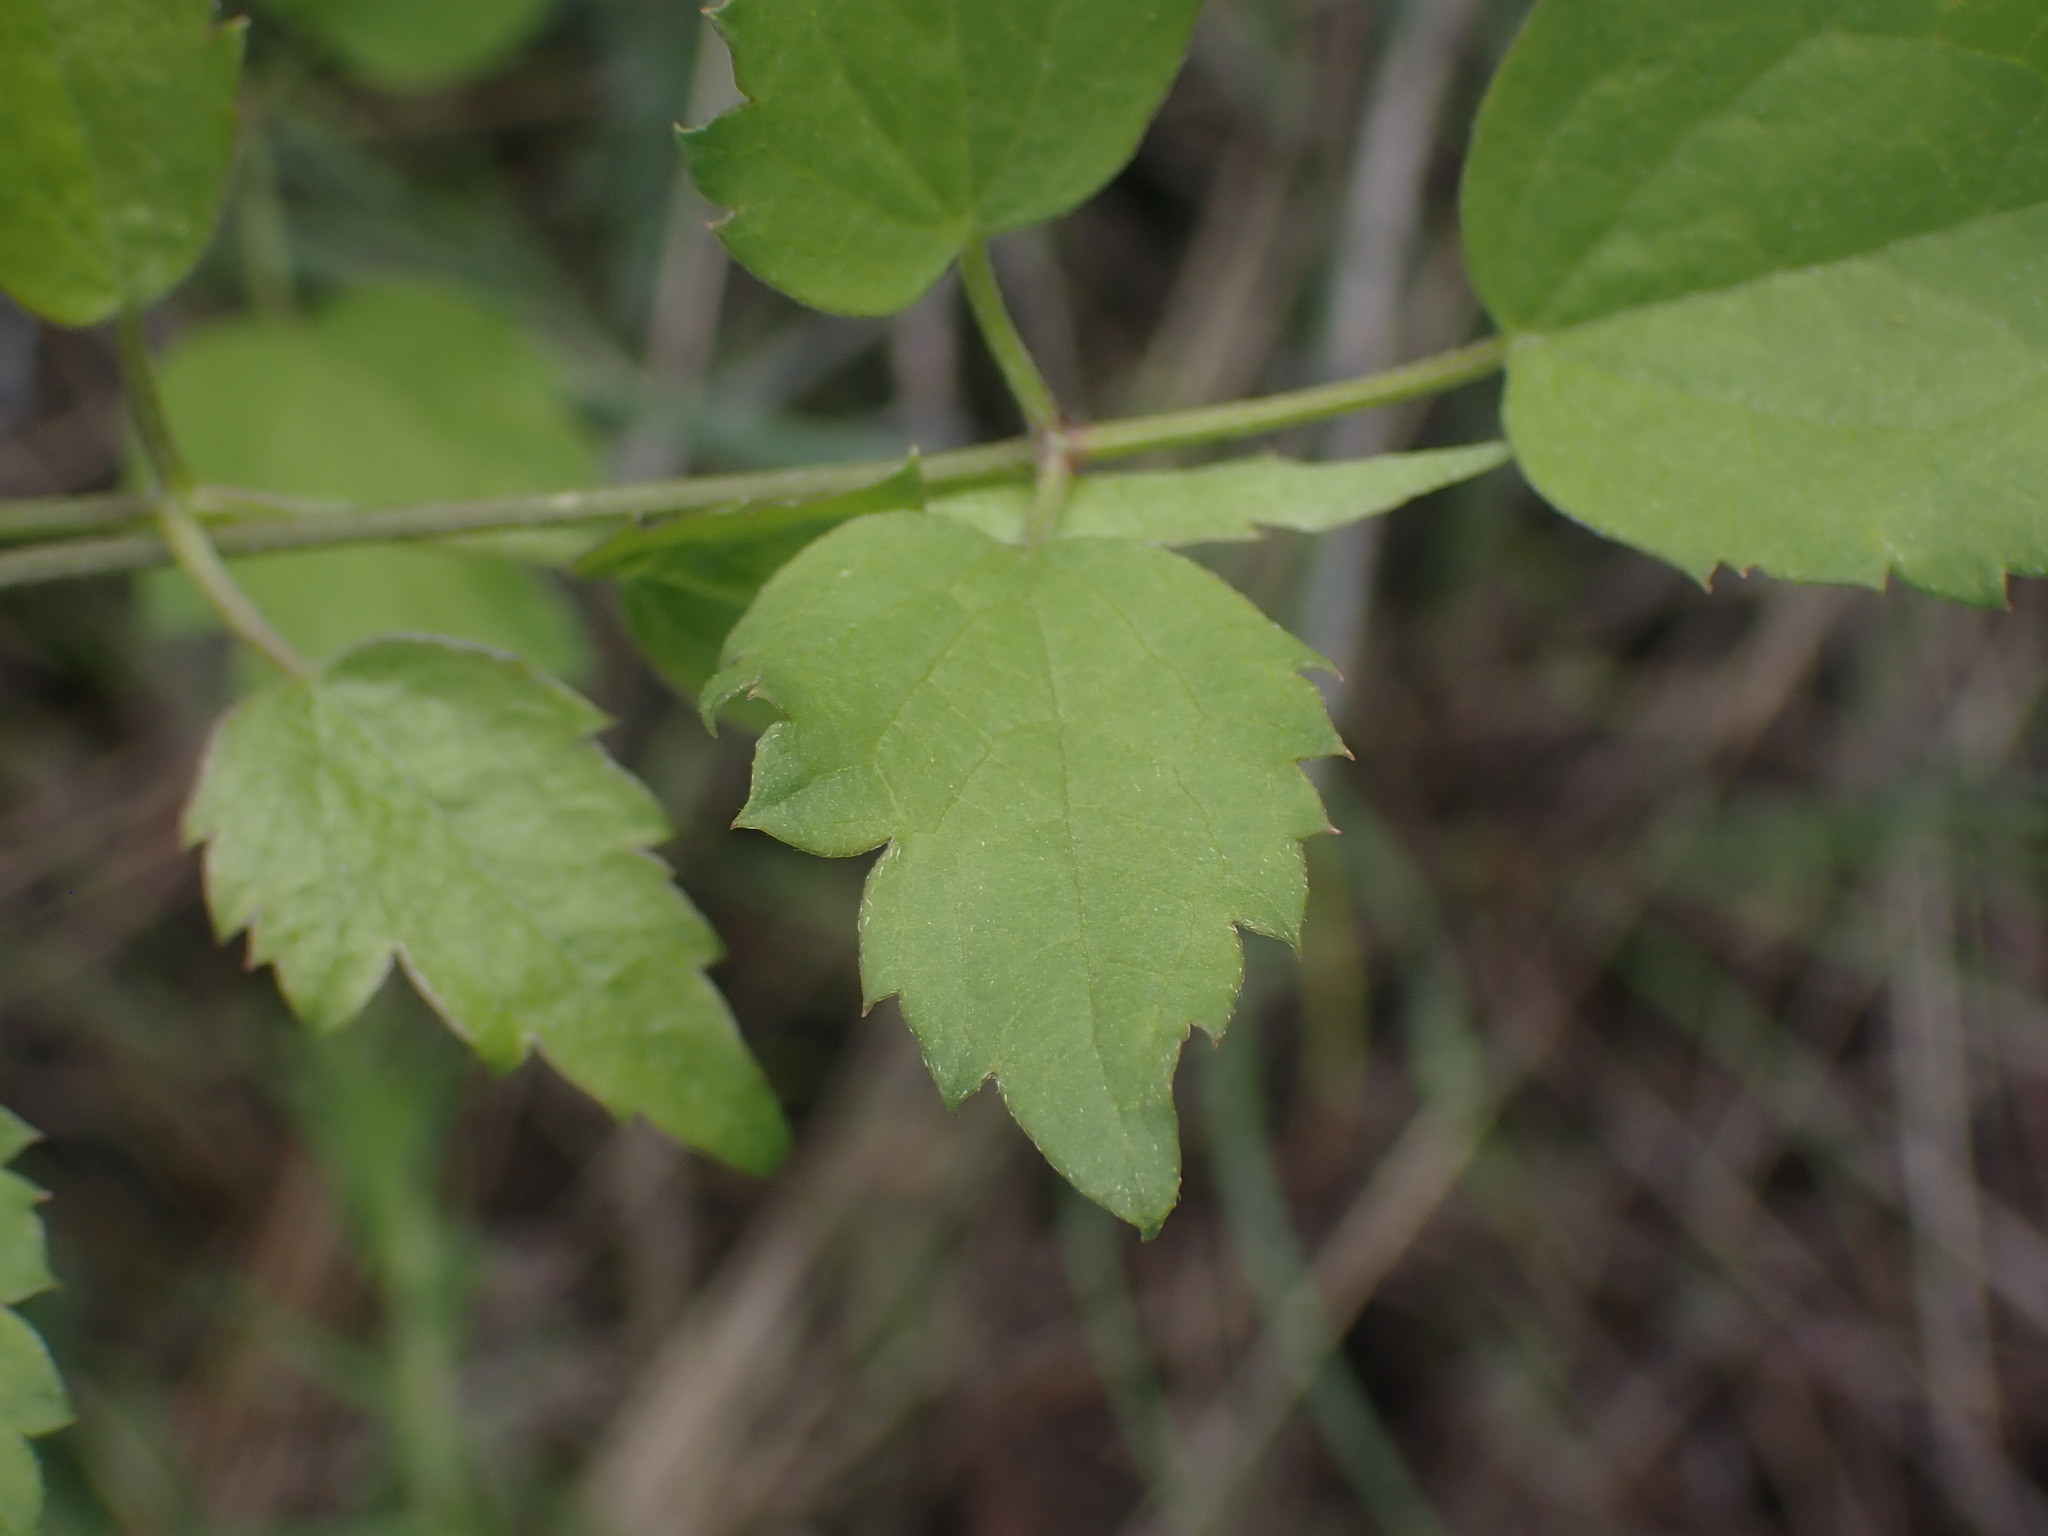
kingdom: Plantae
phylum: Tracheophyta
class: Magnoliopsida
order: Ranunculales
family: Ranunculaceae
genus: Clematis
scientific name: Clematis ligusticifolia
